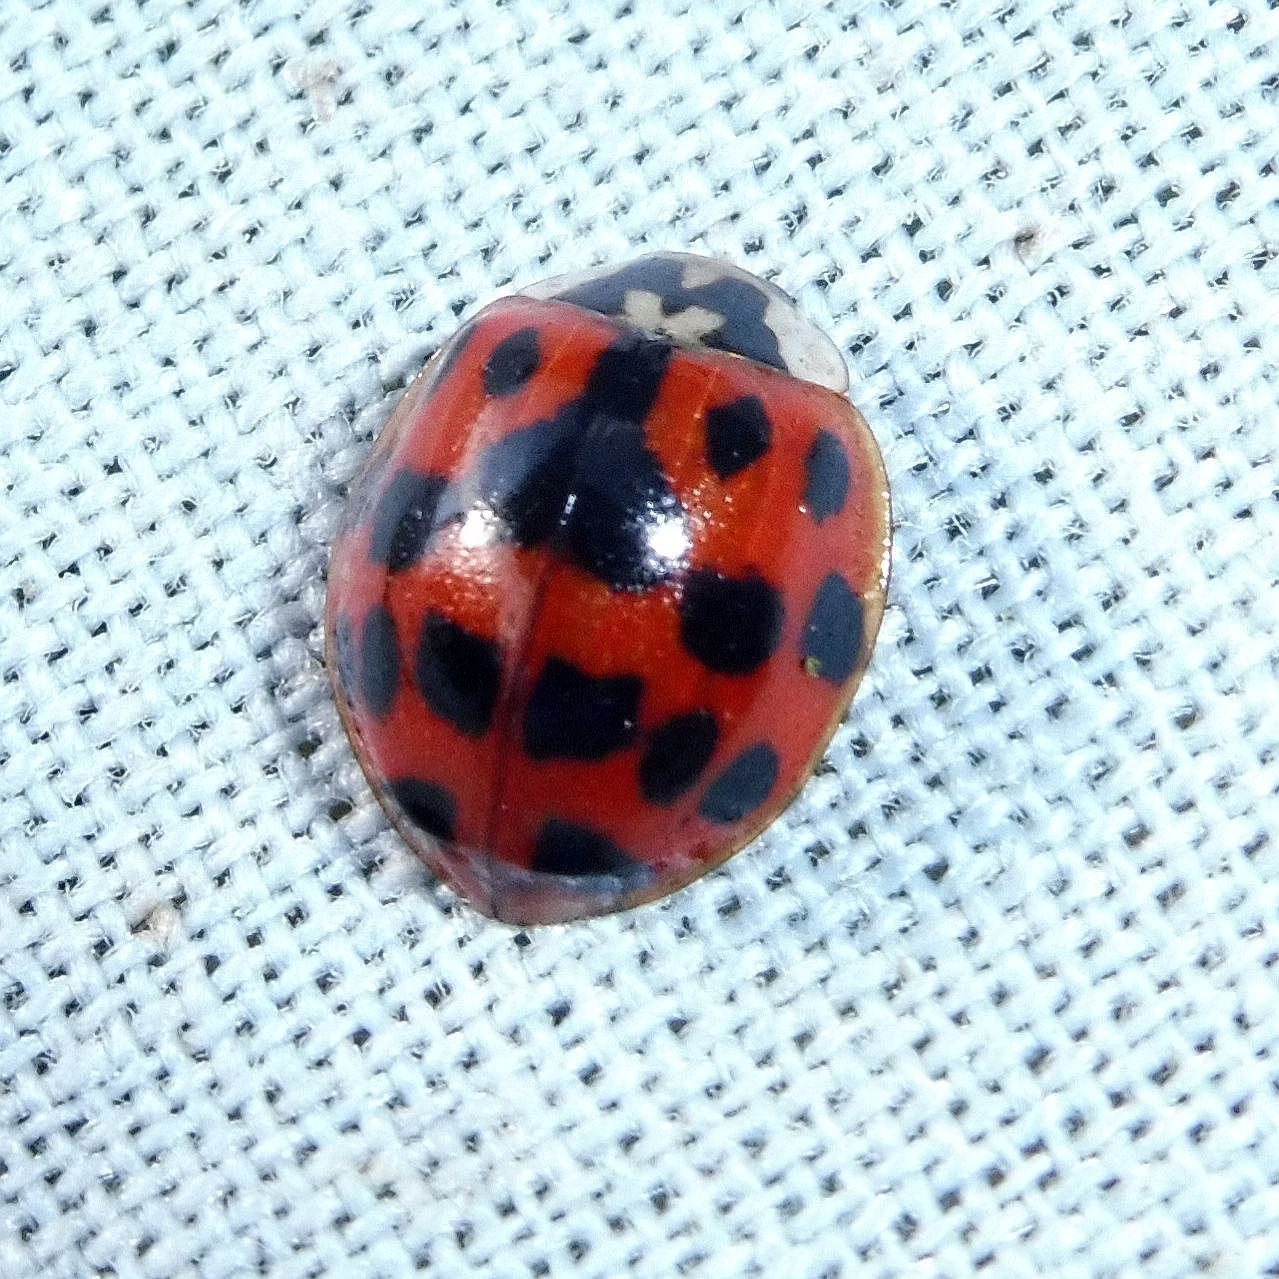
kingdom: Animalia
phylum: Arthropoda
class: Insecta
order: Coleoptera
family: Coccinellidae
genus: Harmonia
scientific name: Harmonia axyridis
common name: Harlequin ladybird
